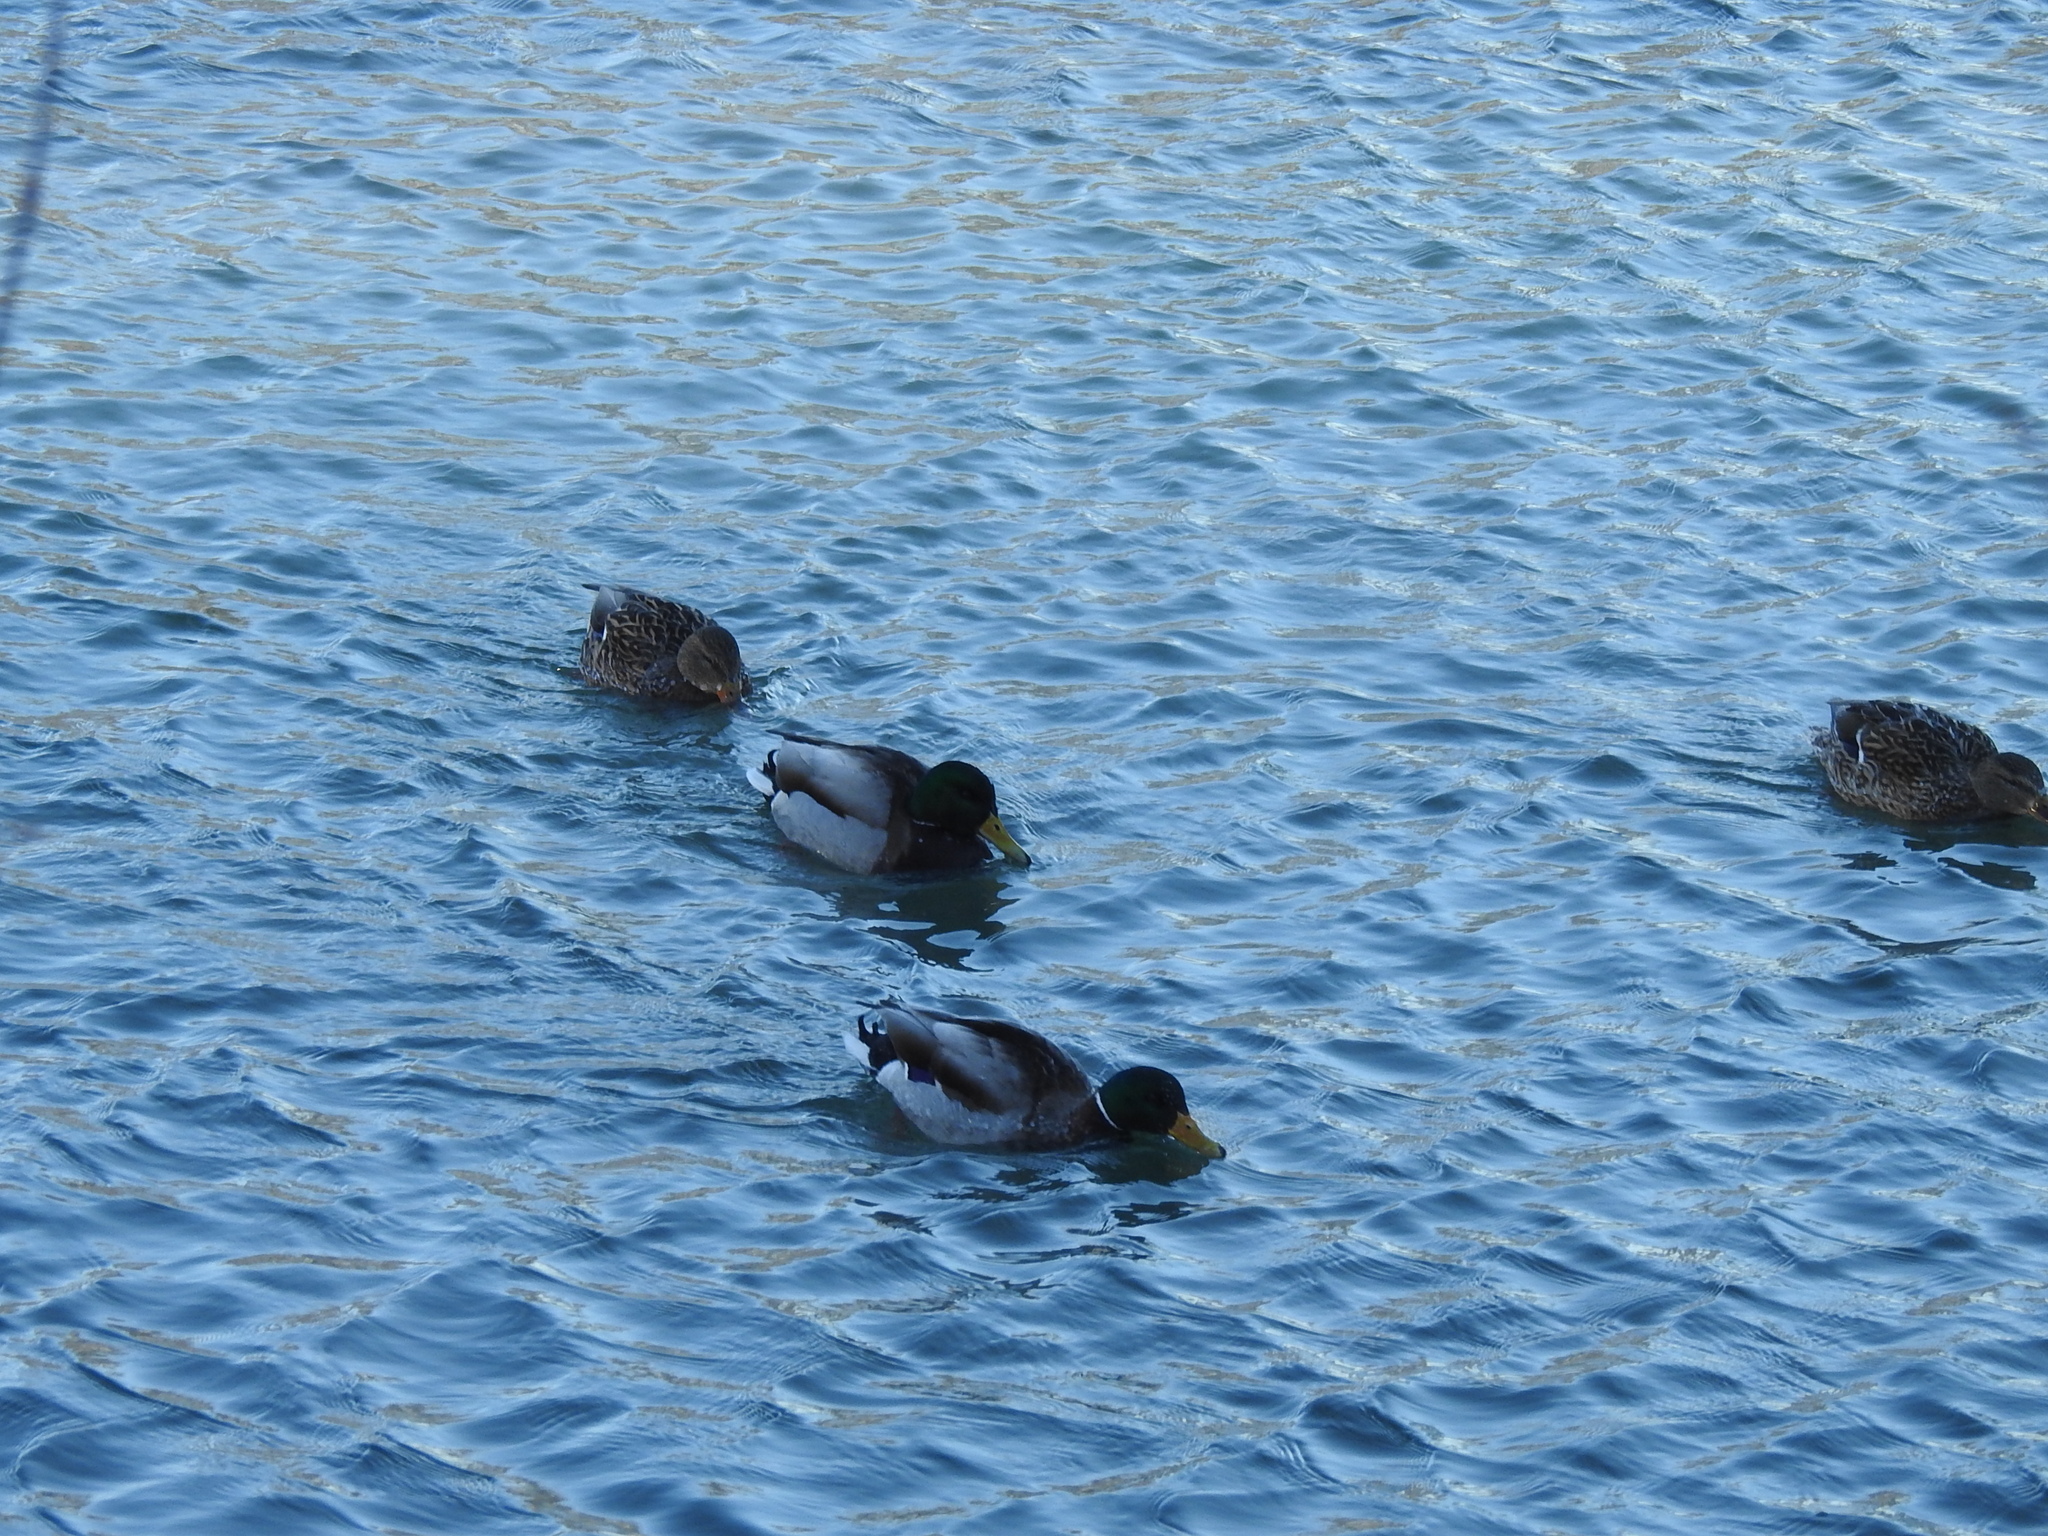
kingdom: Animalia
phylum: Chordata
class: Aves
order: Anseriformes
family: Anatidae
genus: Anas
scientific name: Anas platyrhynchos
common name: Mallard
